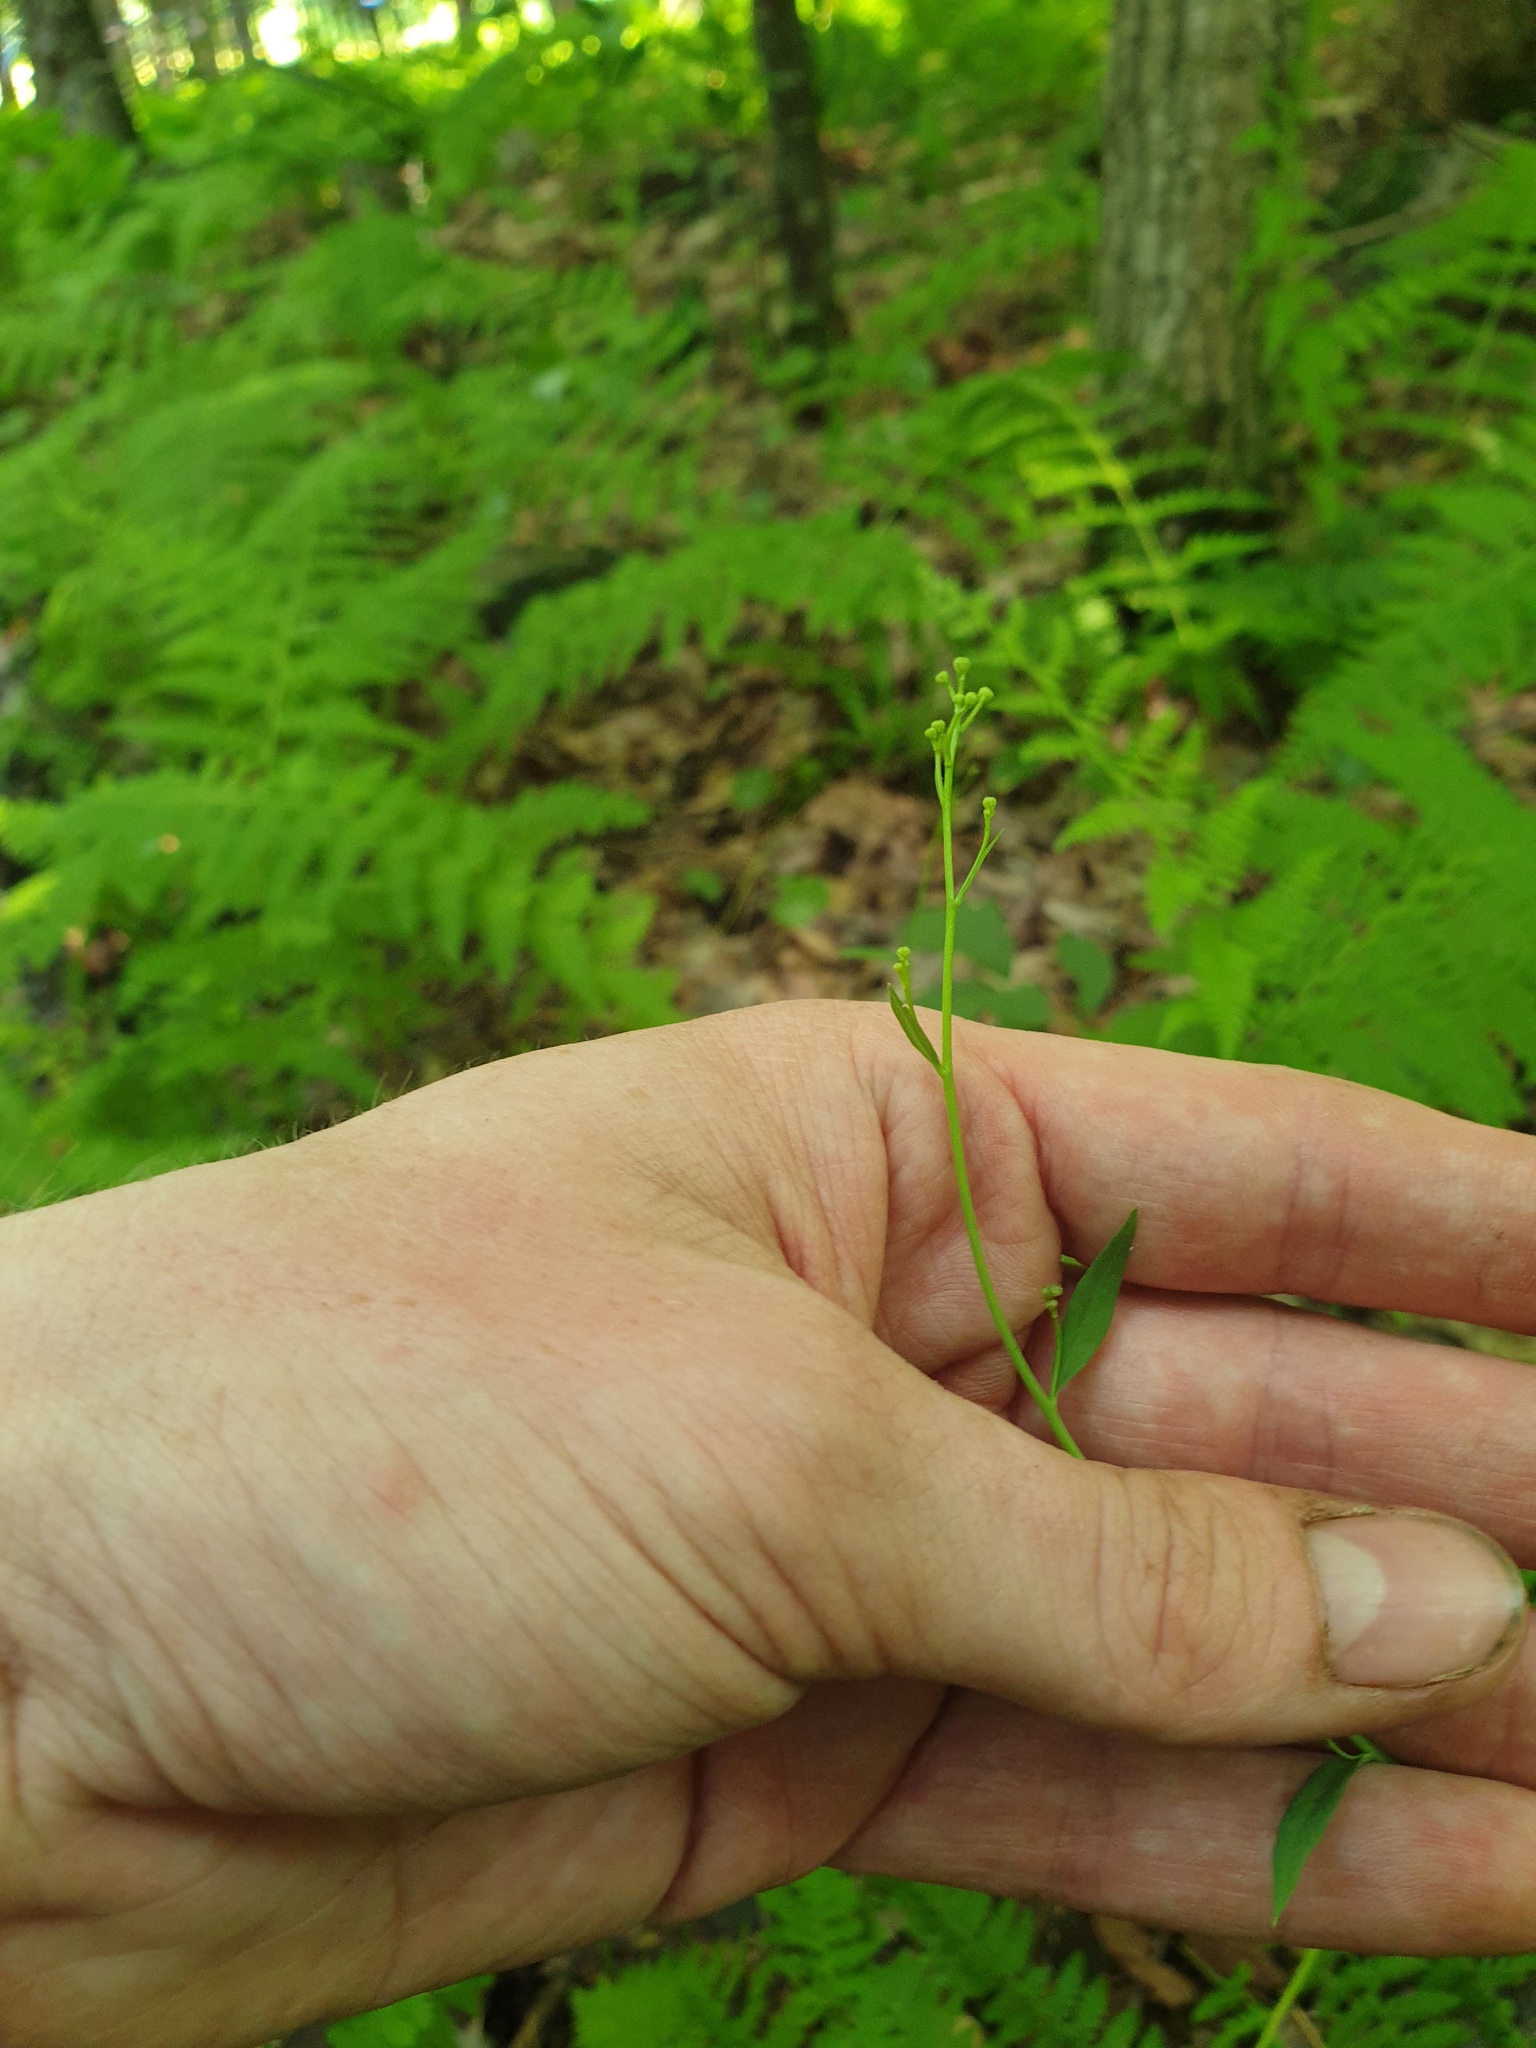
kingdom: Plantae
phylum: Tracheophyta
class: Magnoliopsida
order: Asterales
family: Asteraceae
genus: Hieracium
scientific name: Hieracium paniculatum
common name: Allegheny hawkweed
